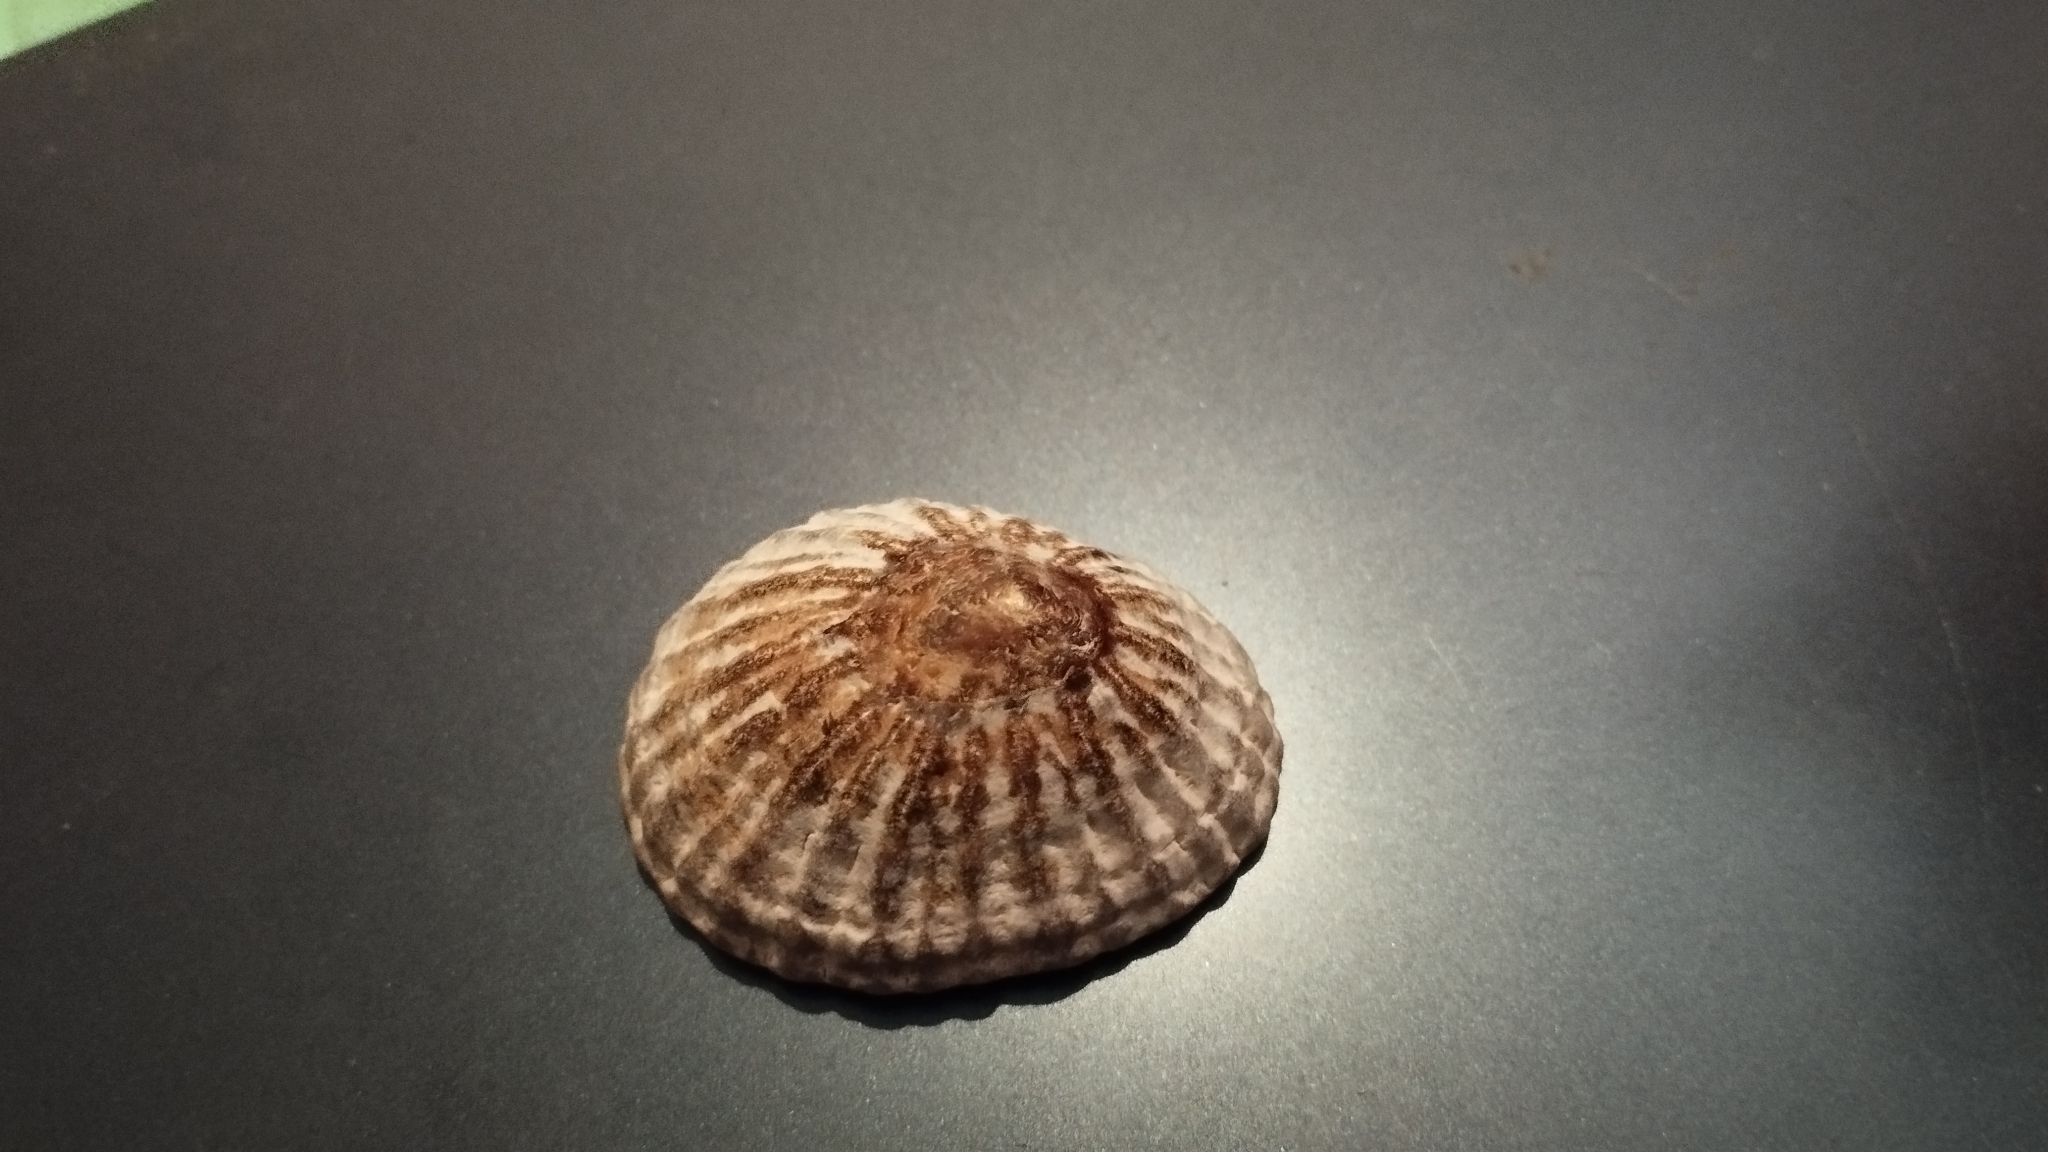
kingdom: Animalia
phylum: Mollusca
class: Gastropoda
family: Nacellidae
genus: Nacella
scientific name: Nacella magellanica
